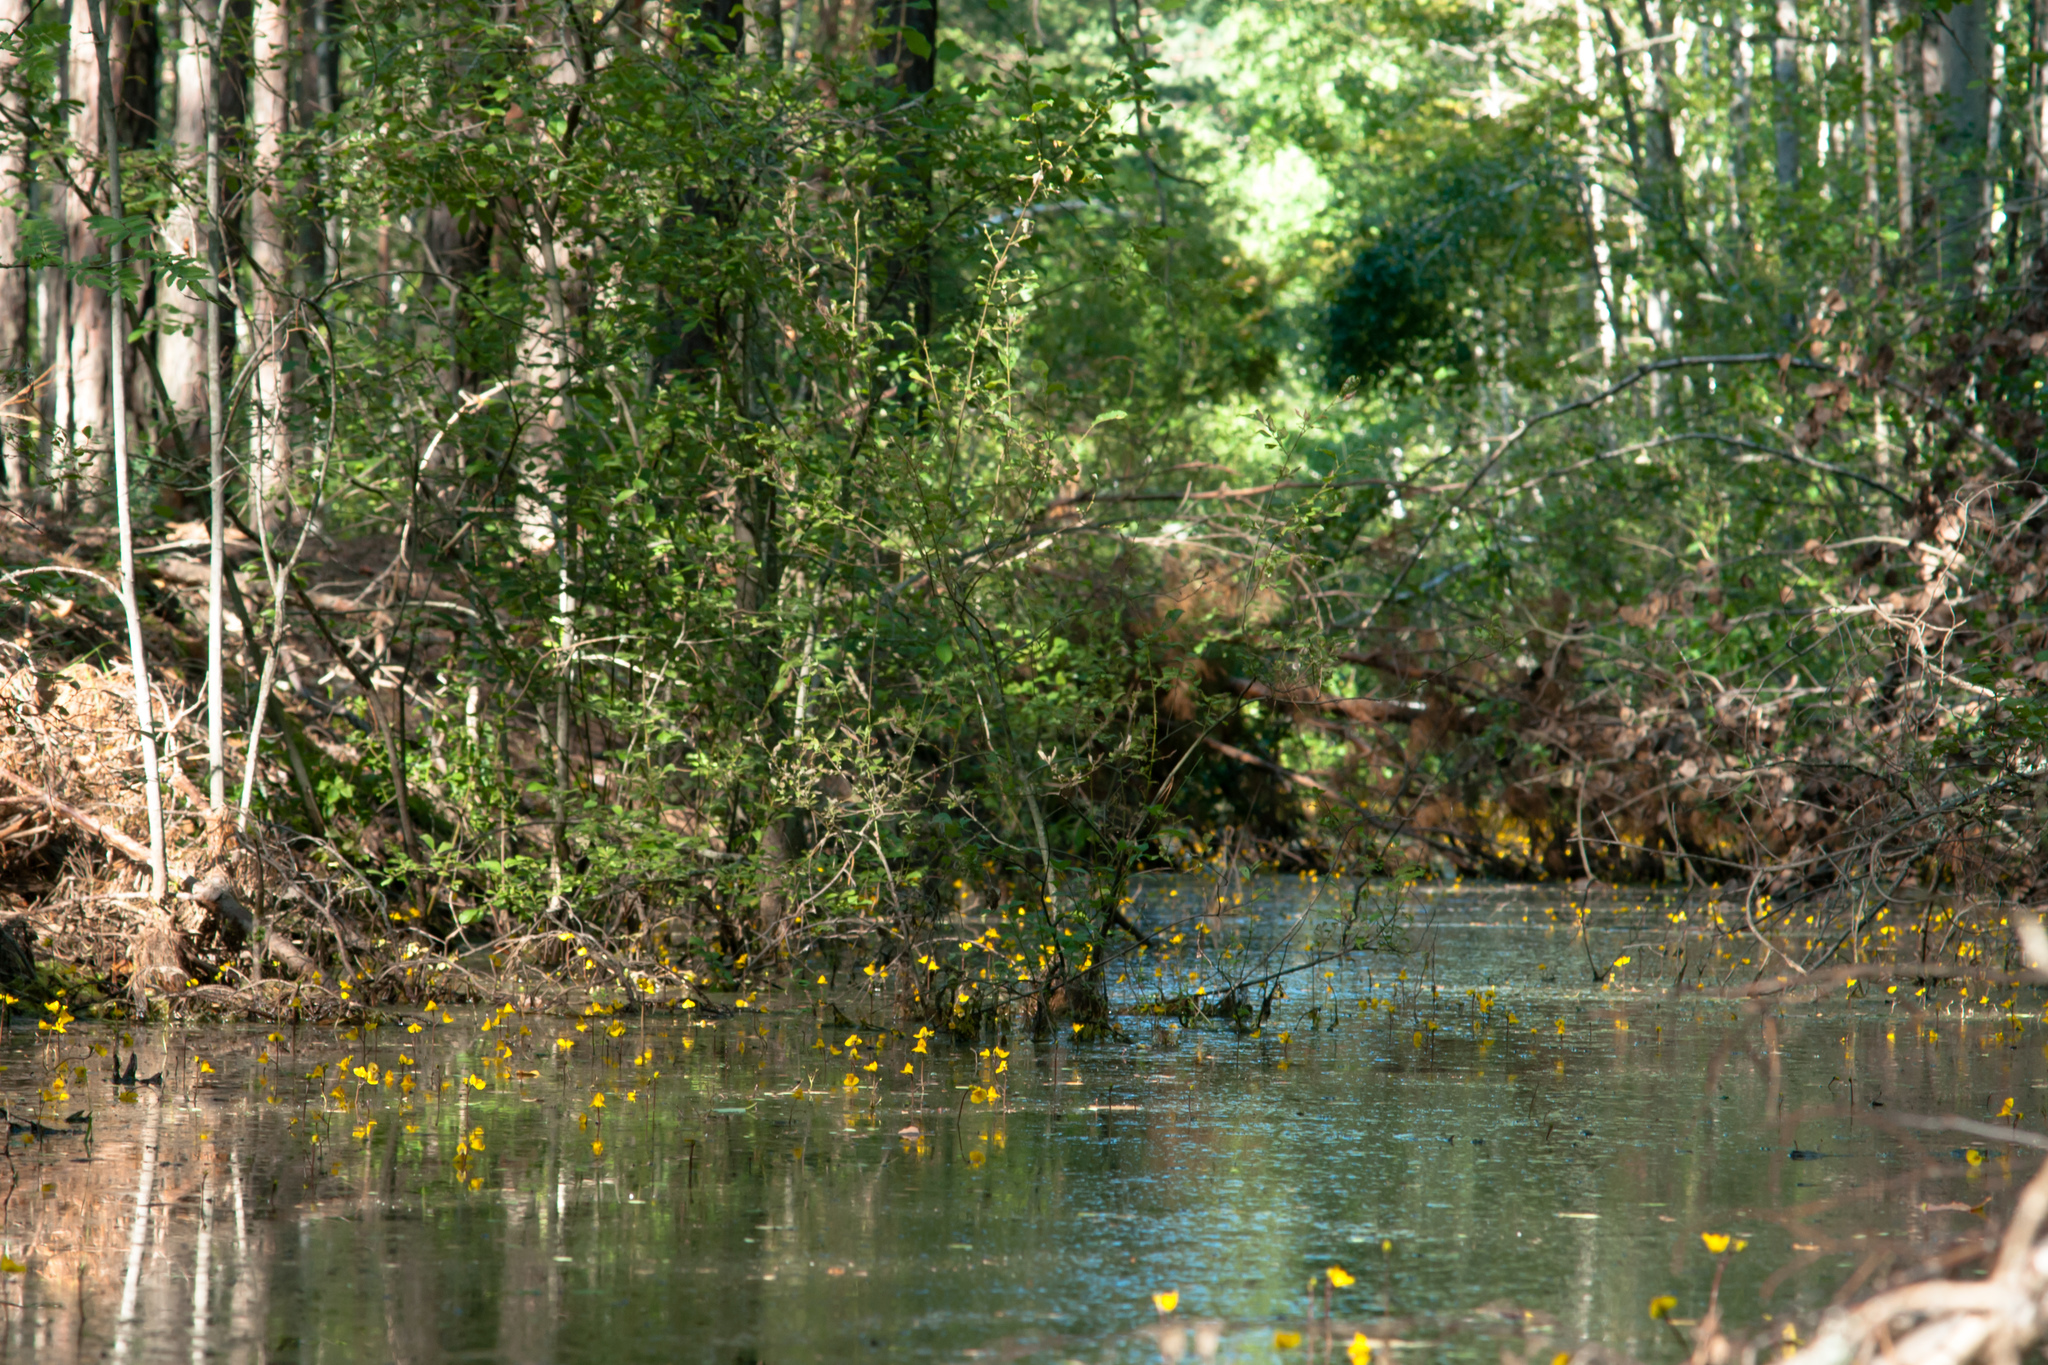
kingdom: Plantae
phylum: Tracheophyta
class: Magnoliopsida
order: Lamiales
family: Lentibulariaceae
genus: Utricularia
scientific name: Utricularia australis
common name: Bladderwort
